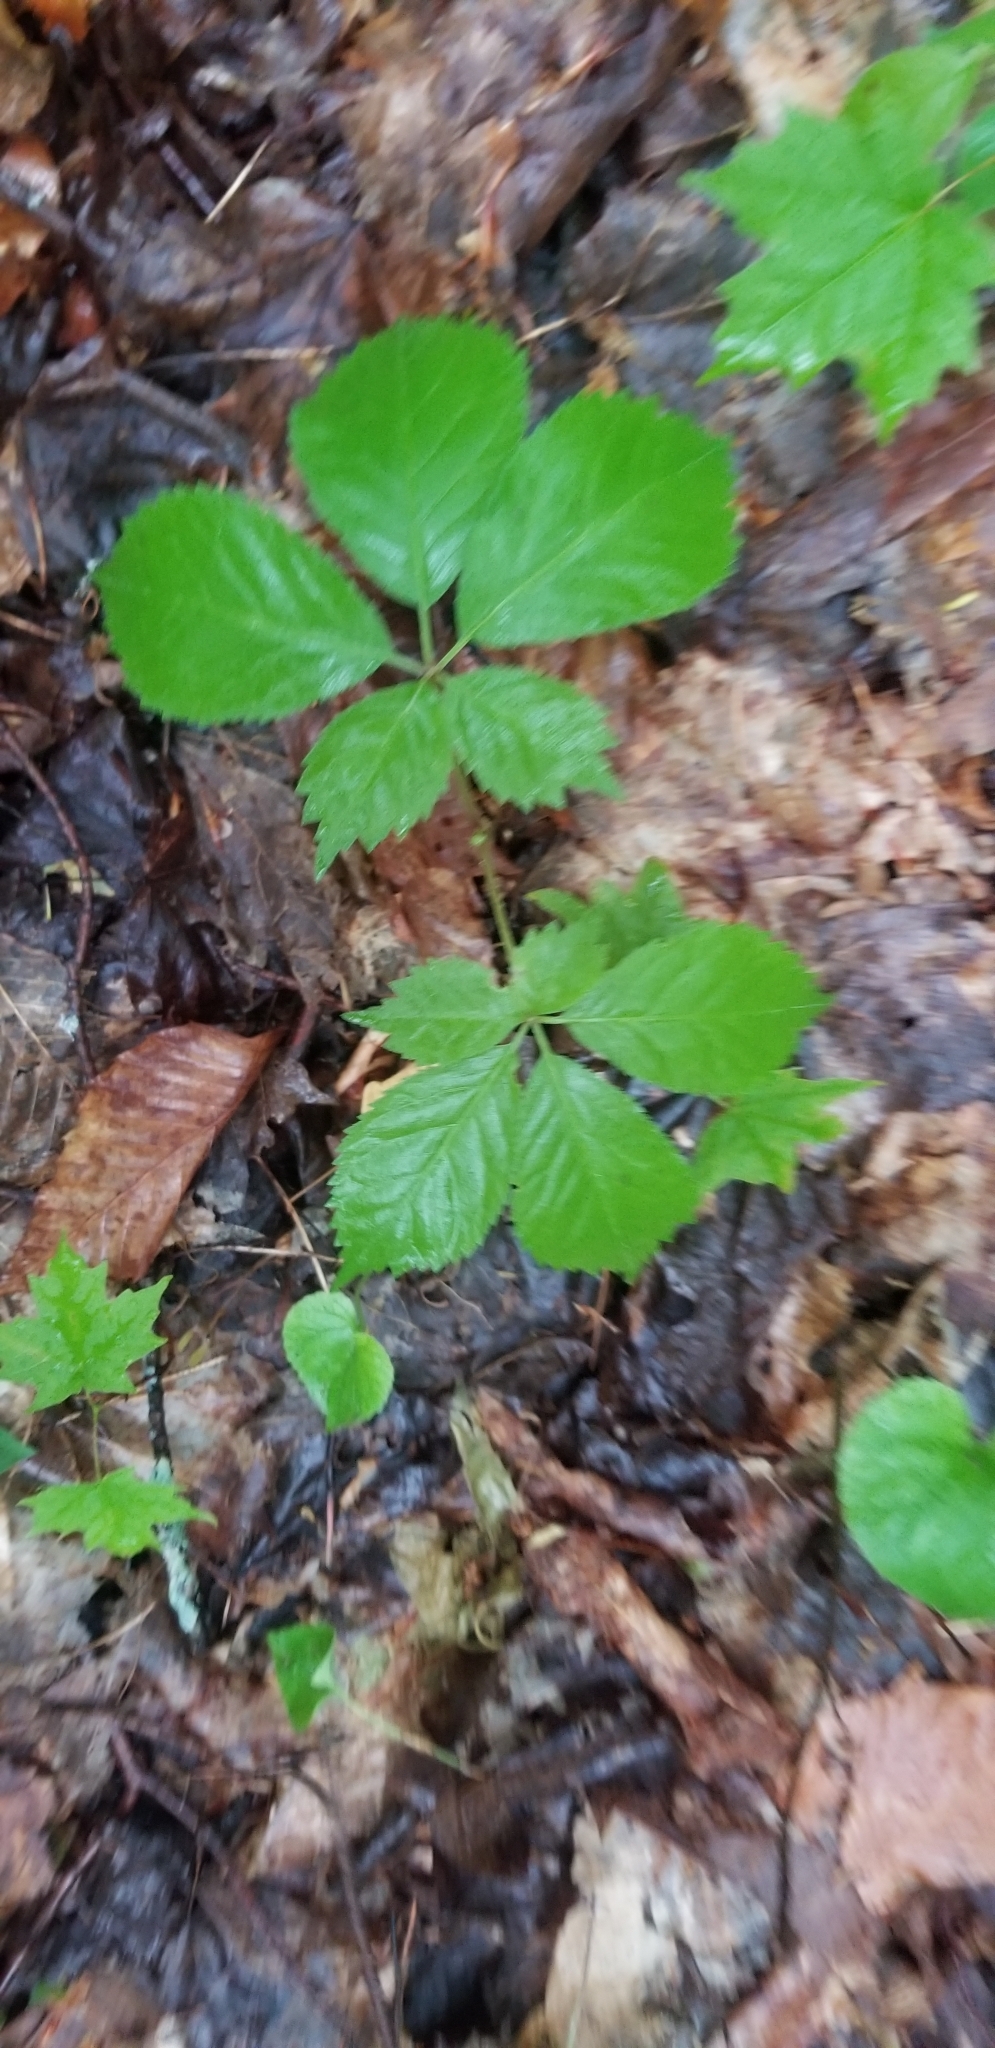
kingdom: Plantae
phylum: Tracheophyta
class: Magnoliopsida
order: Apiales
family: Araliaceae
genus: Panax
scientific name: Panax quinquefolius
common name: American ginseng
